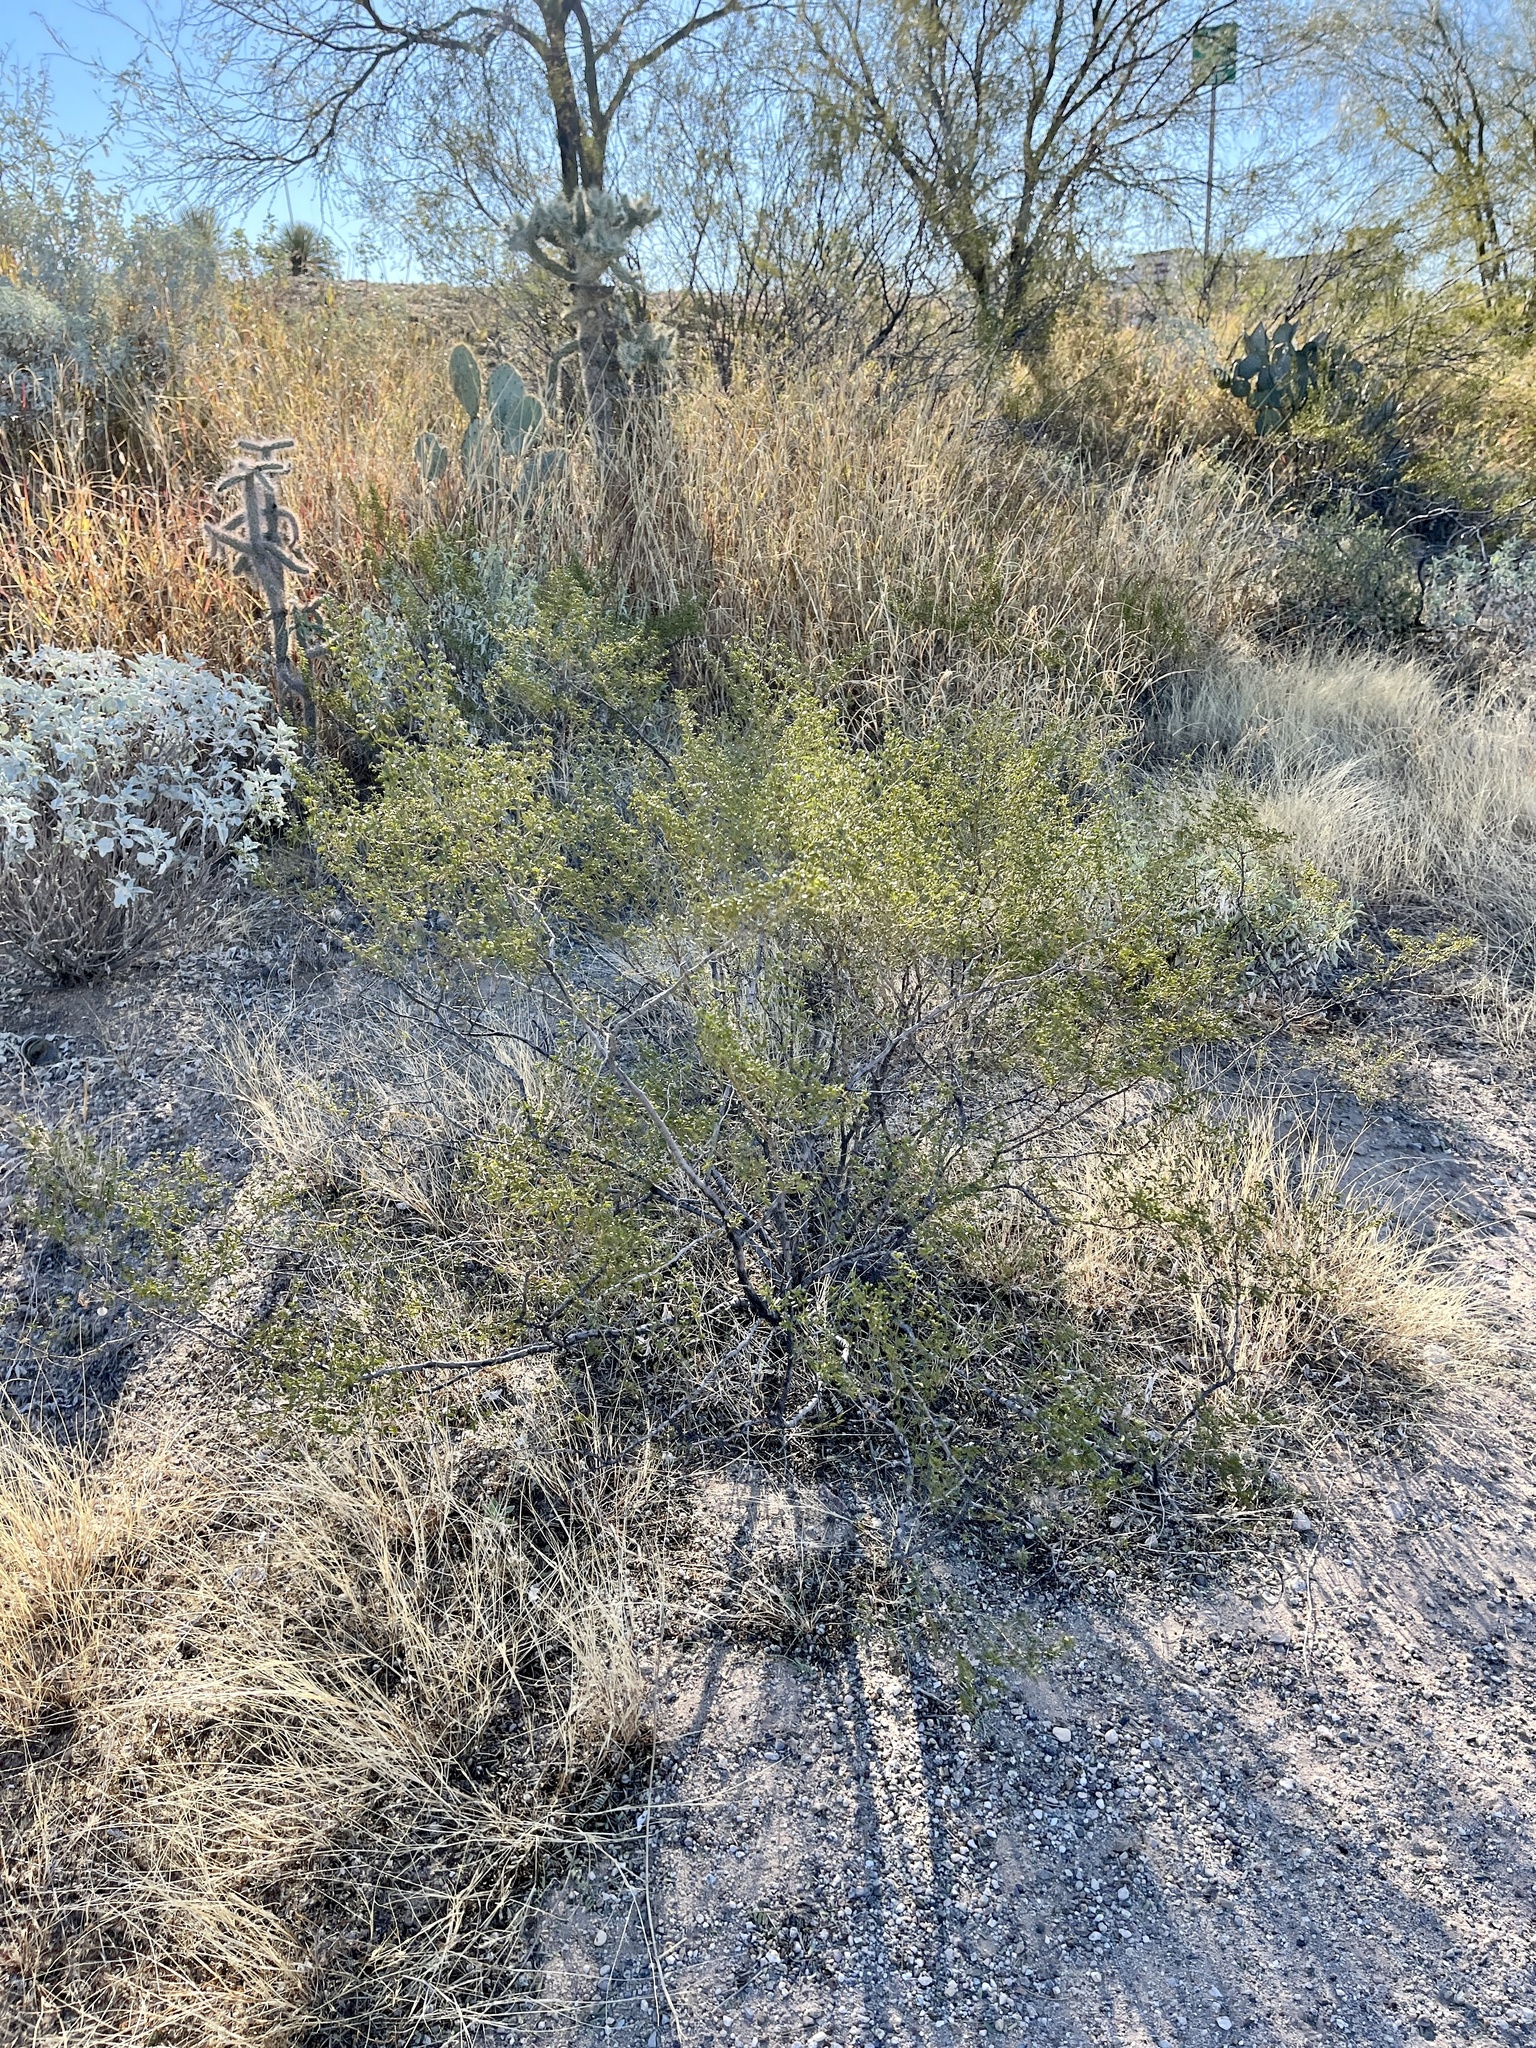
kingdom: Plantae
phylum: Tracheophyta
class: Magnoliopsida
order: Zygophyllales
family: Zygophyllaceae
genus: Larrea
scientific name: Larrea tridentata
